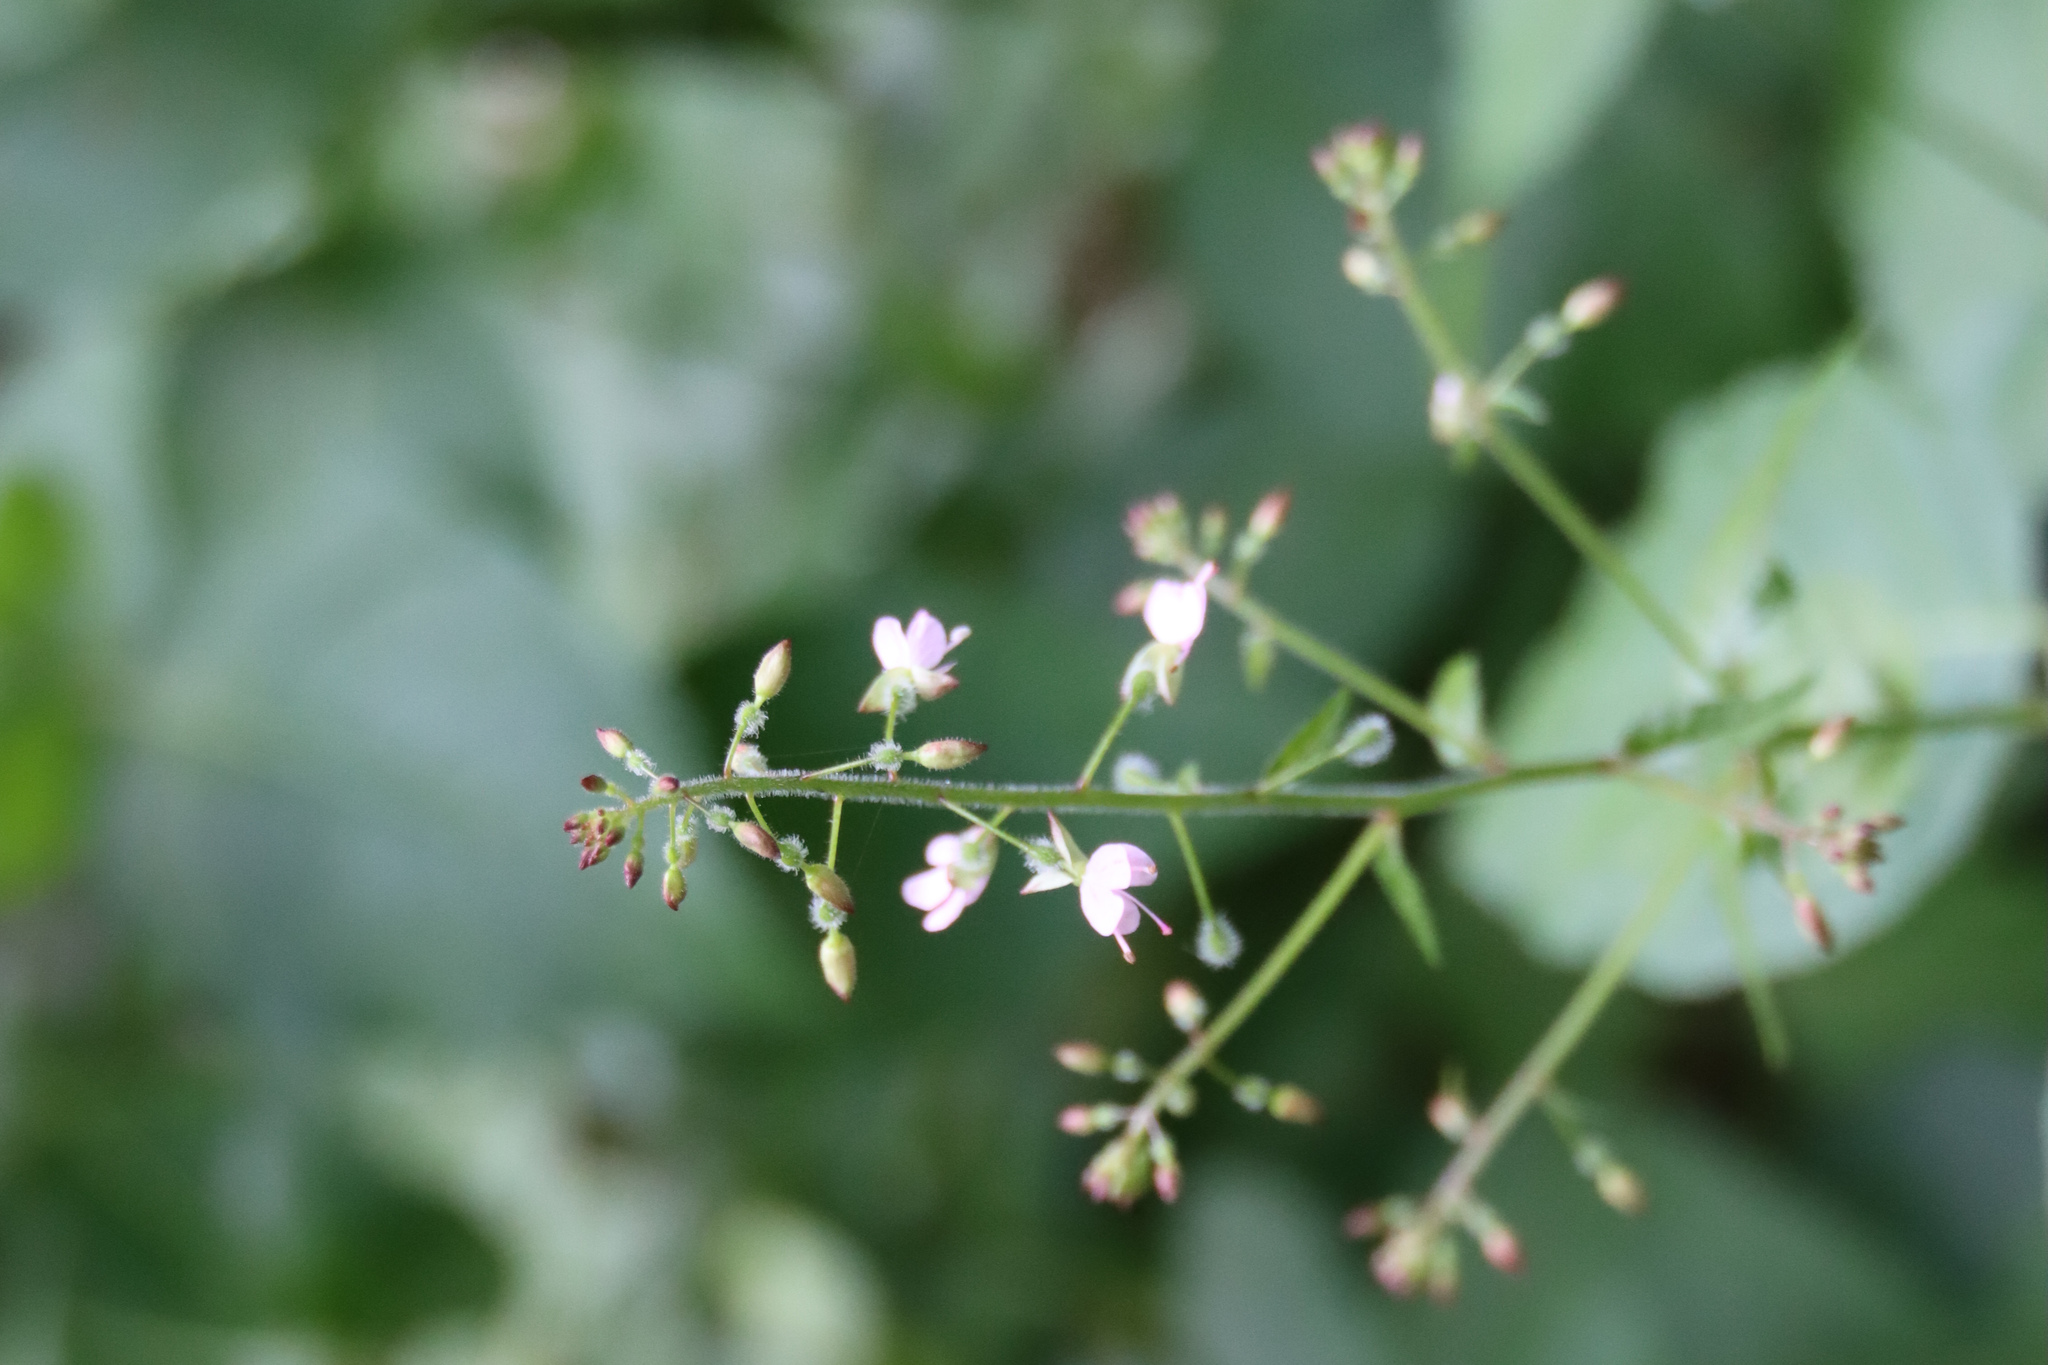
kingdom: Plantae
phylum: Tracheophyta
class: Magnoliopsida
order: Myrtales
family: Onagraceae
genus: Circaea
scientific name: Circaea lutetiana
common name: Enchanter's-nightshade
